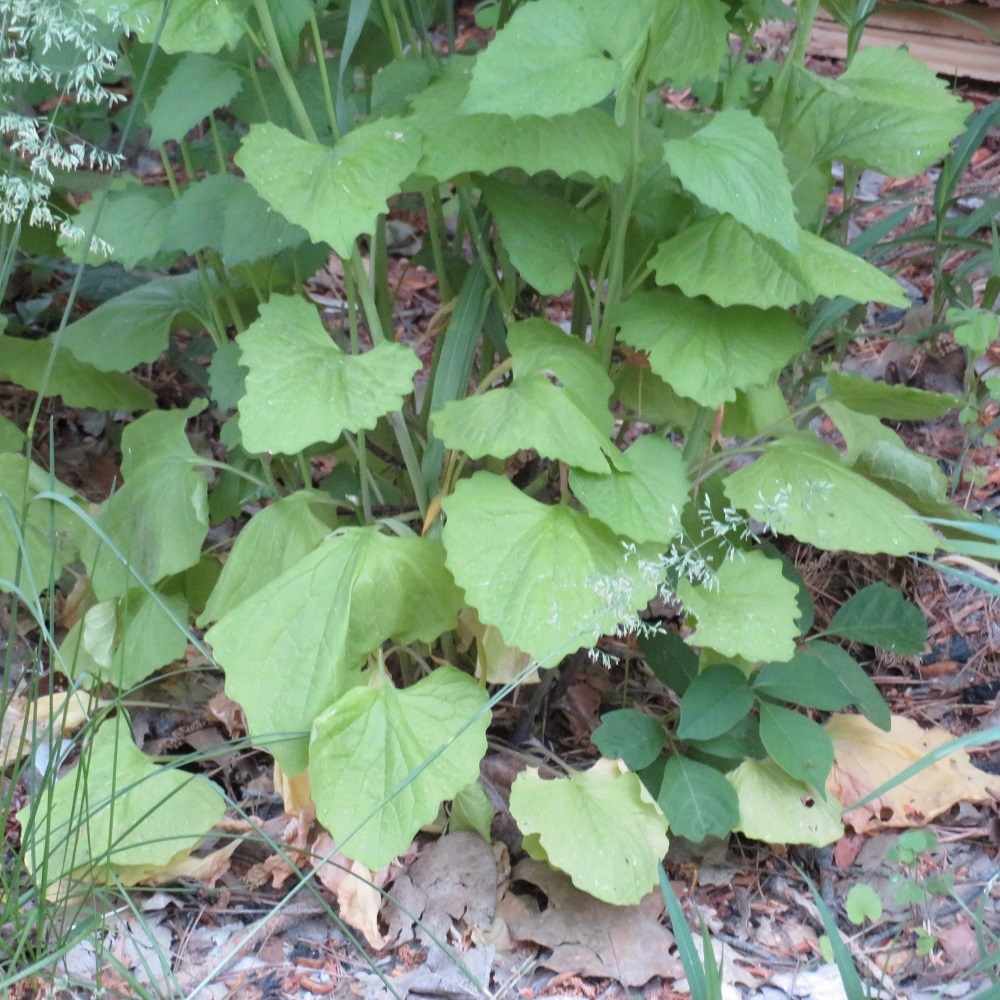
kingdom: Plantae
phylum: Tracheophyta
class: Magnoliopsida
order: Brassicales
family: Brassicaceae
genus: Alliaria
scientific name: Alliaria petiolata
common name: Garlic mustard
